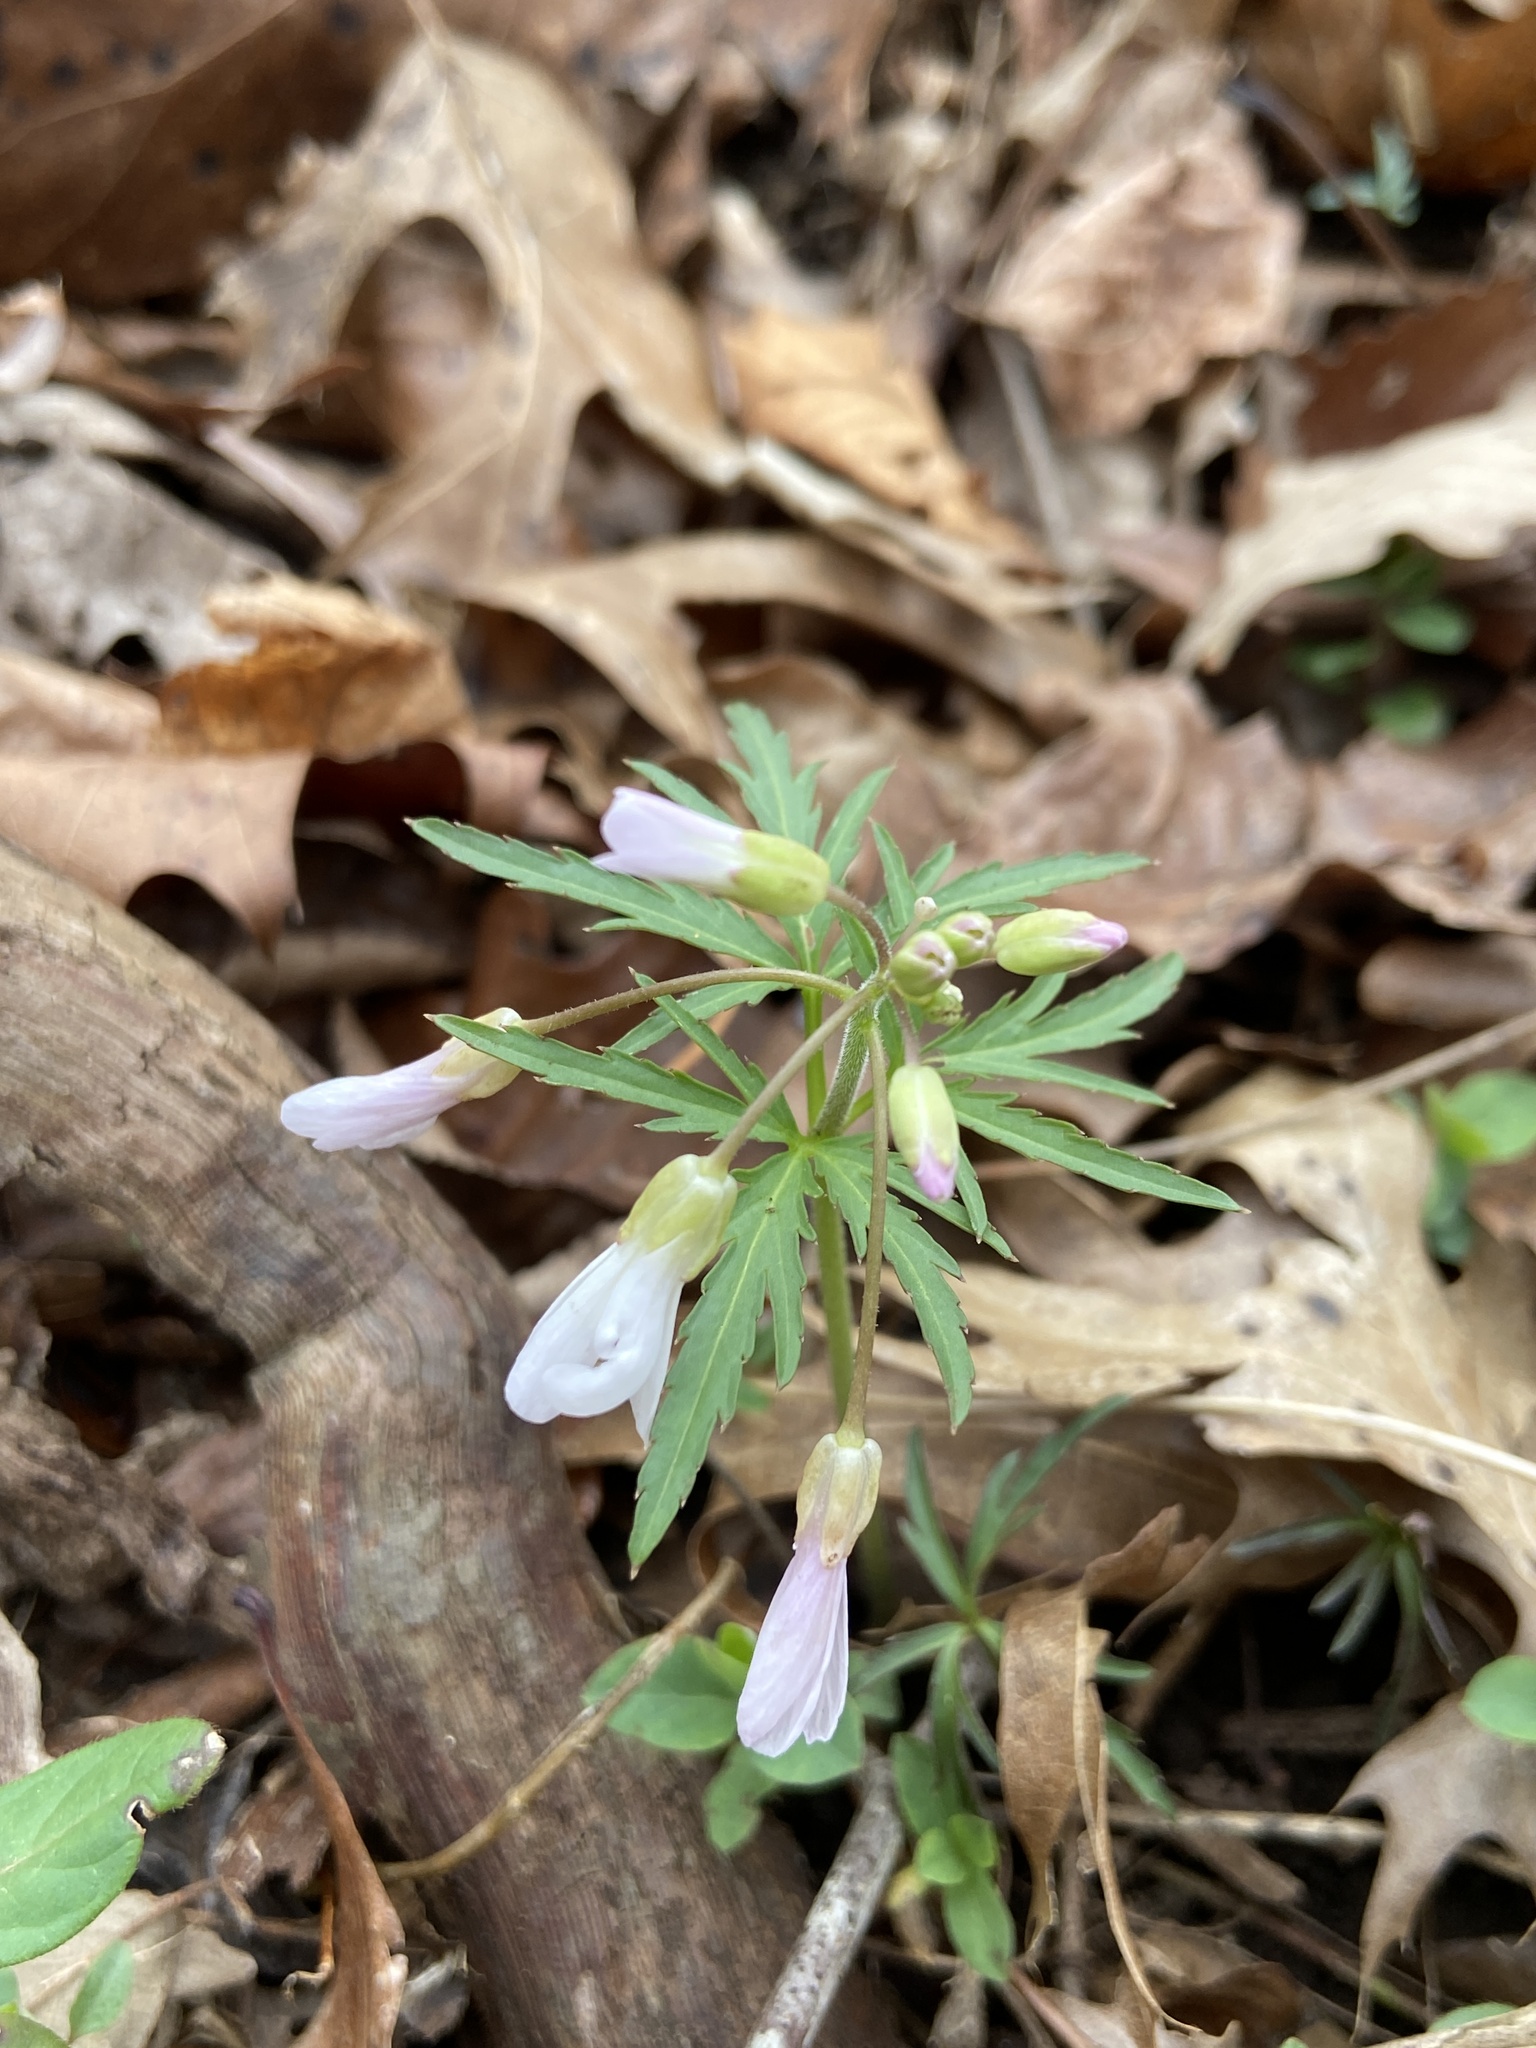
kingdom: Plantae
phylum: Tracheophyta
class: Magnoliopsida
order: Brassicales
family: Brassicaceae
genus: Cardamine
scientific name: Cardamine concatenata
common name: Cut-leaf toothcup
